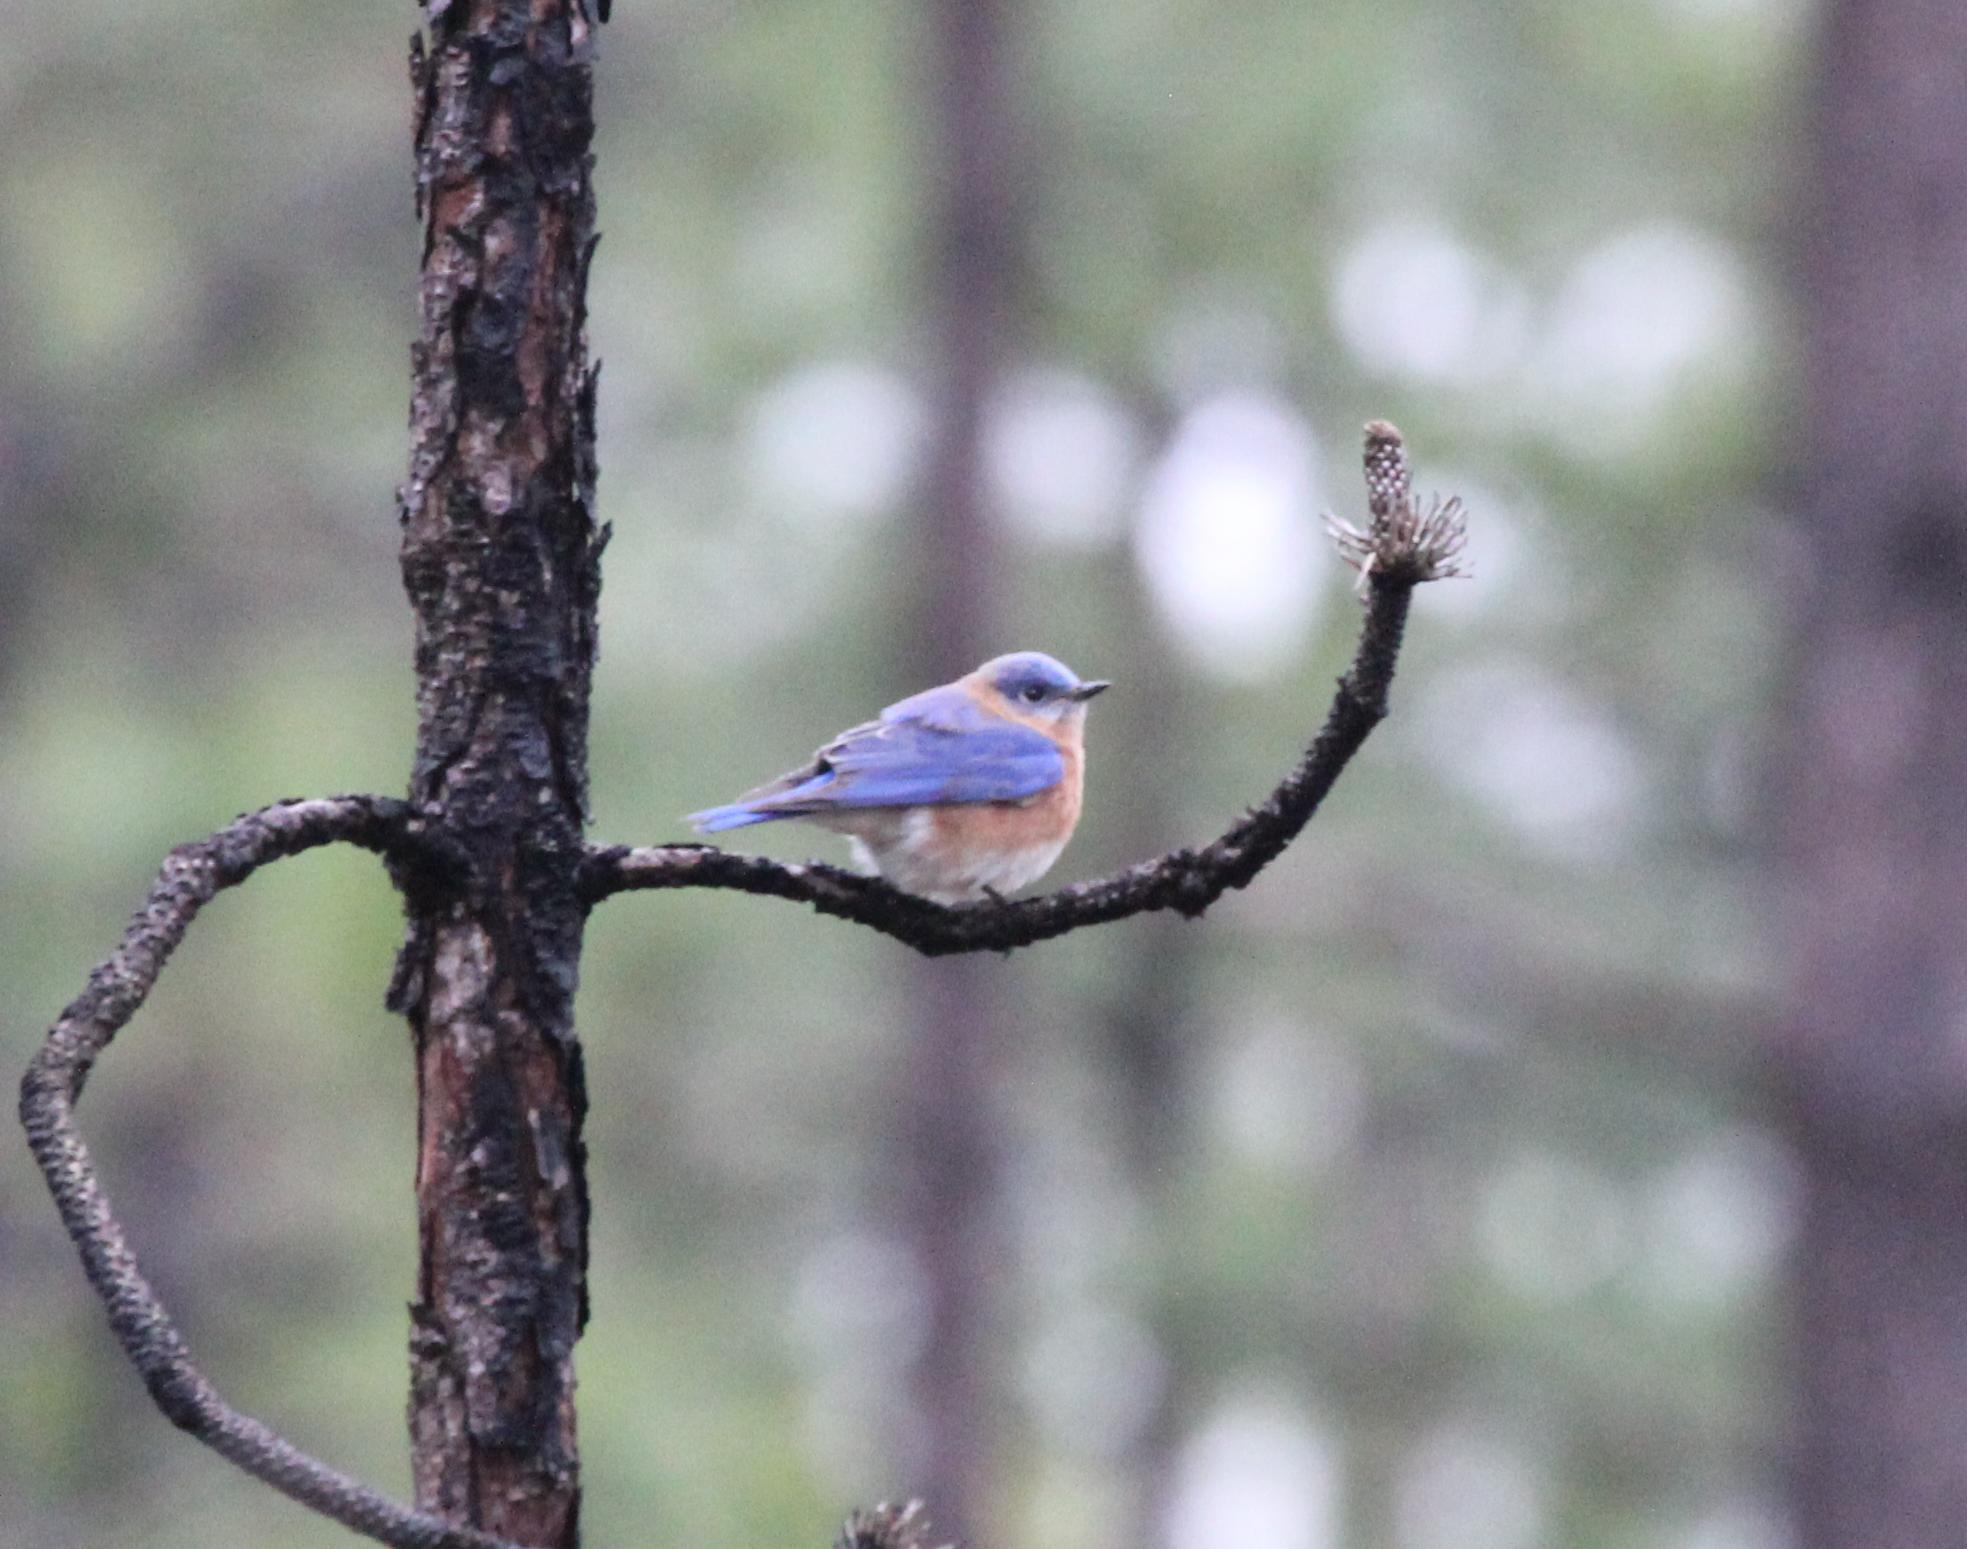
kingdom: Animalia
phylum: Chordata
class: Aves
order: Passeriformes
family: Turdidae
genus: Sialia
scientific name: Sialia sialis
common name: Eastern bluebird
